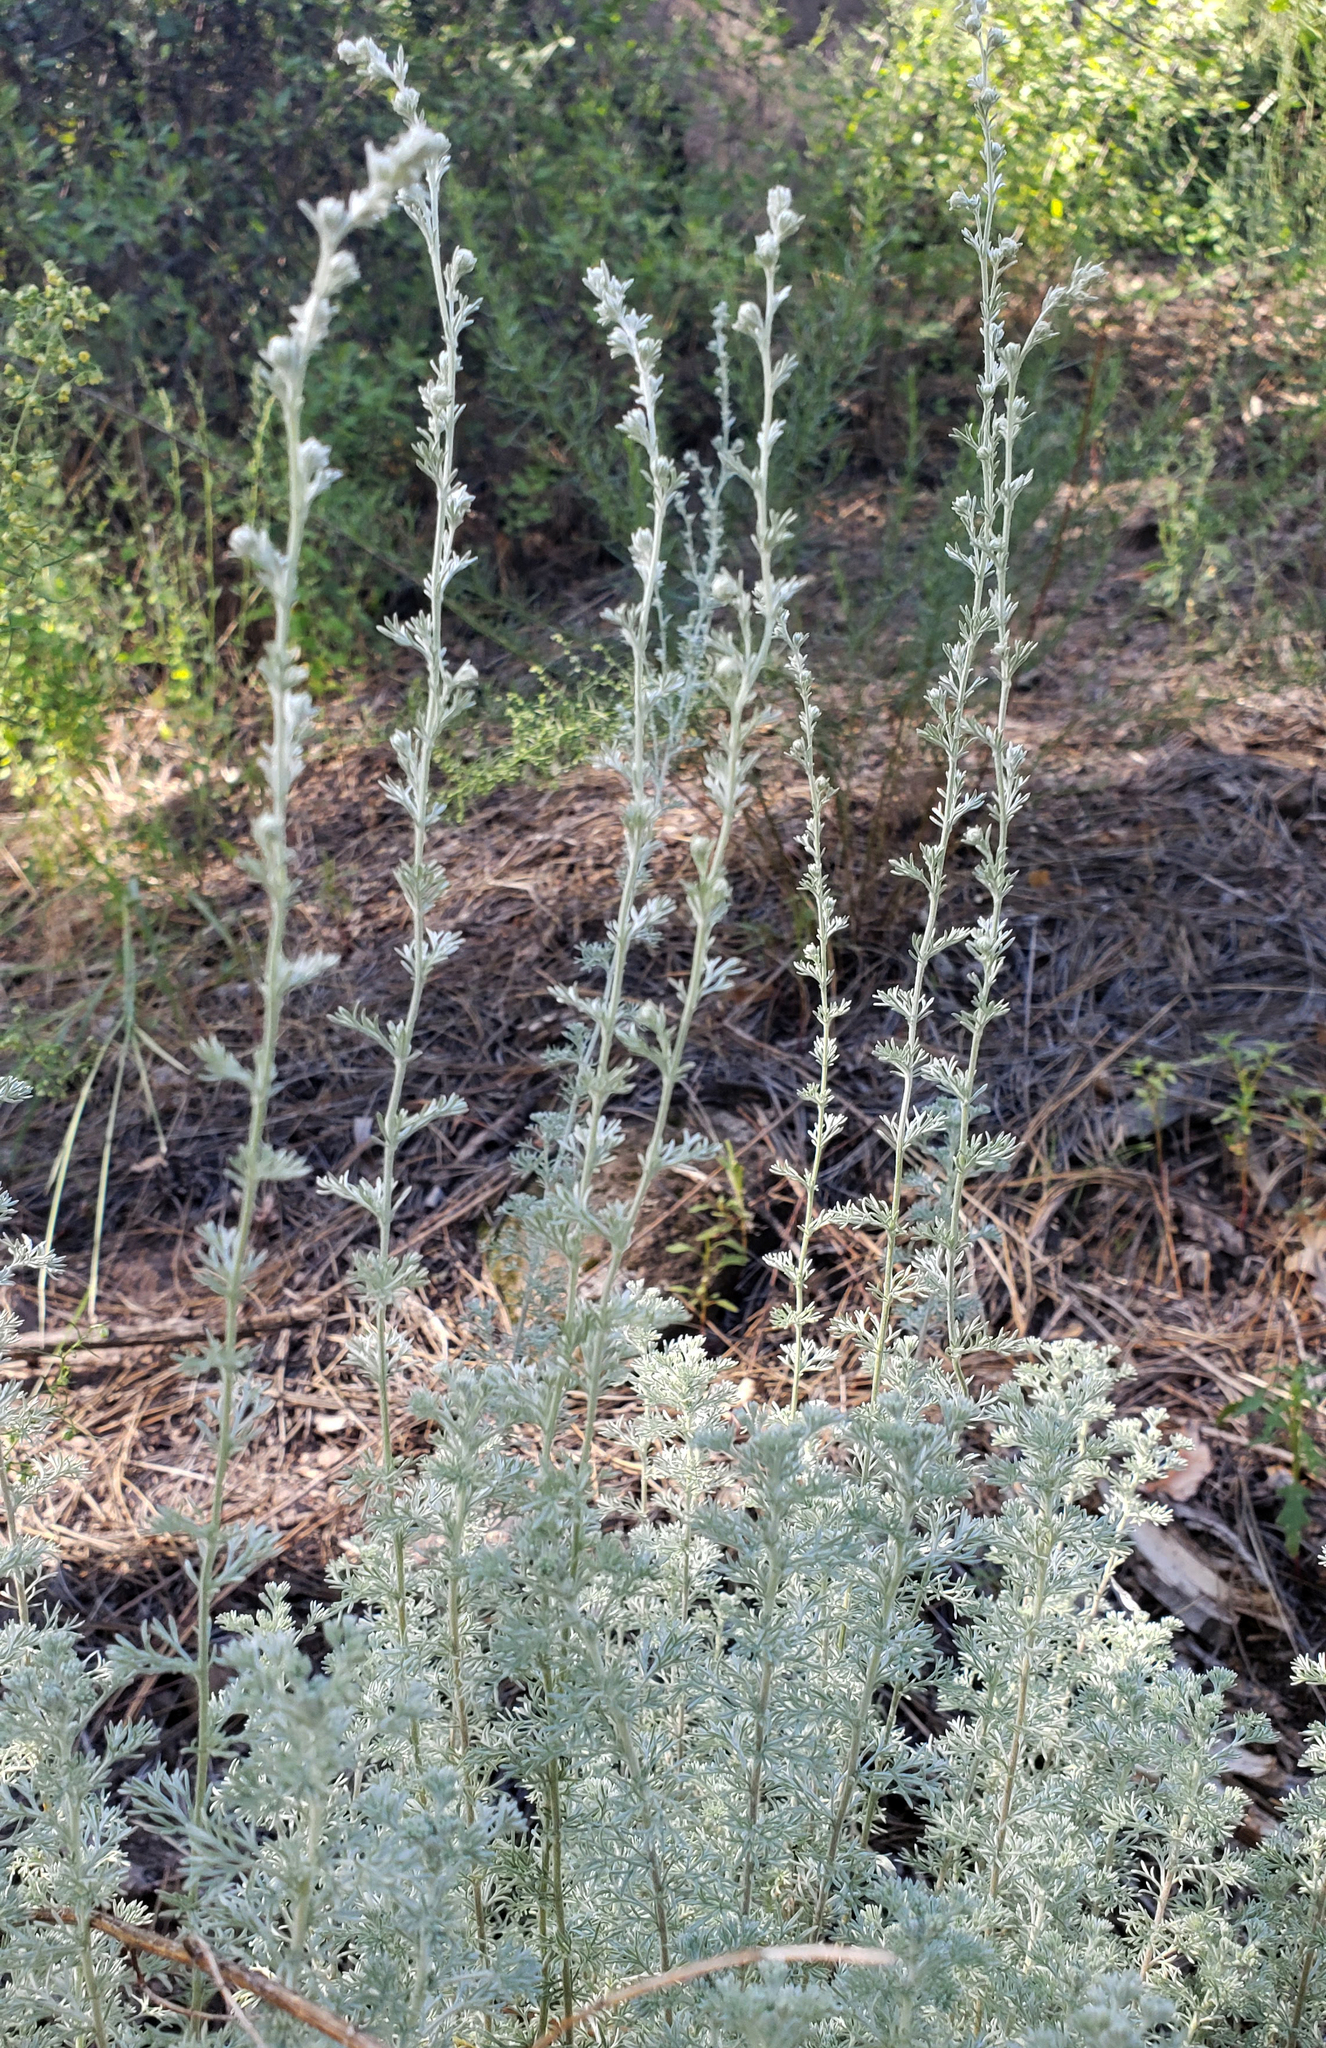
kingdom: Plantae
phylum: Tracheophyta
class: Magnoliopsida
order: Asterales
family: Asteraceae
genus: Artemisia
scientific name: Artemisia frigida
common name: Prairie sagewort
